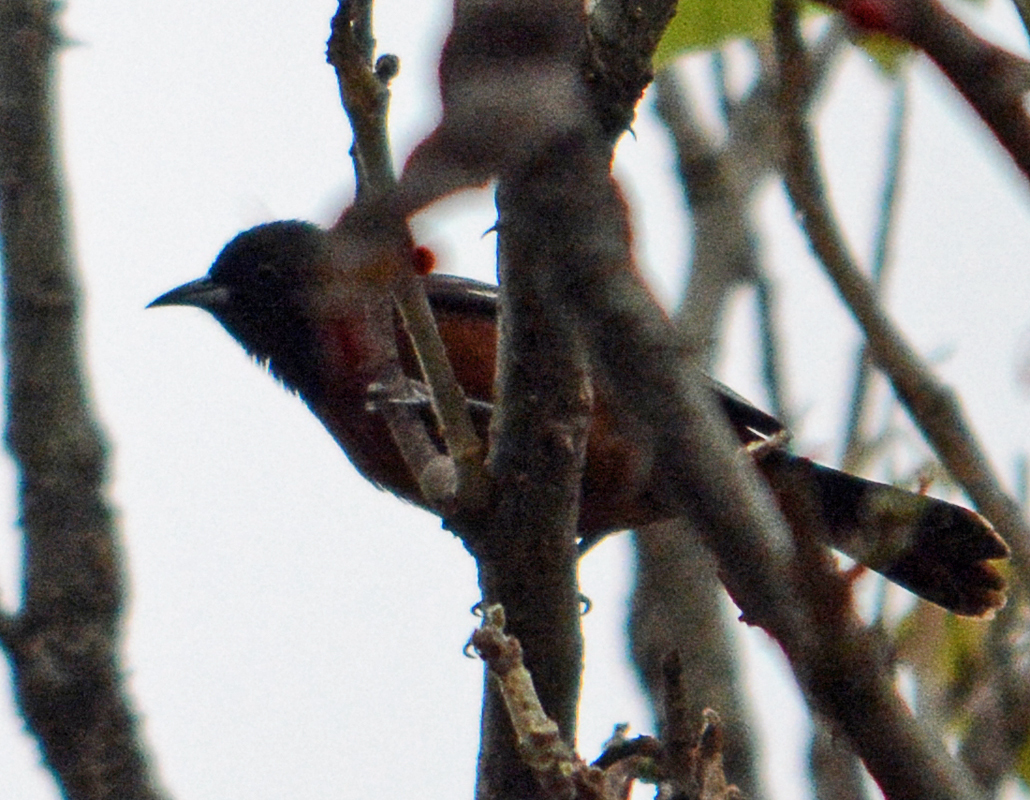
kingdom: Animalia
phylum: Chordata
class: Aves
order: Passeriformes
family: Icteridae
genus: Icterus
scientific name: Icterus spurius
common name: Orchard oriole
